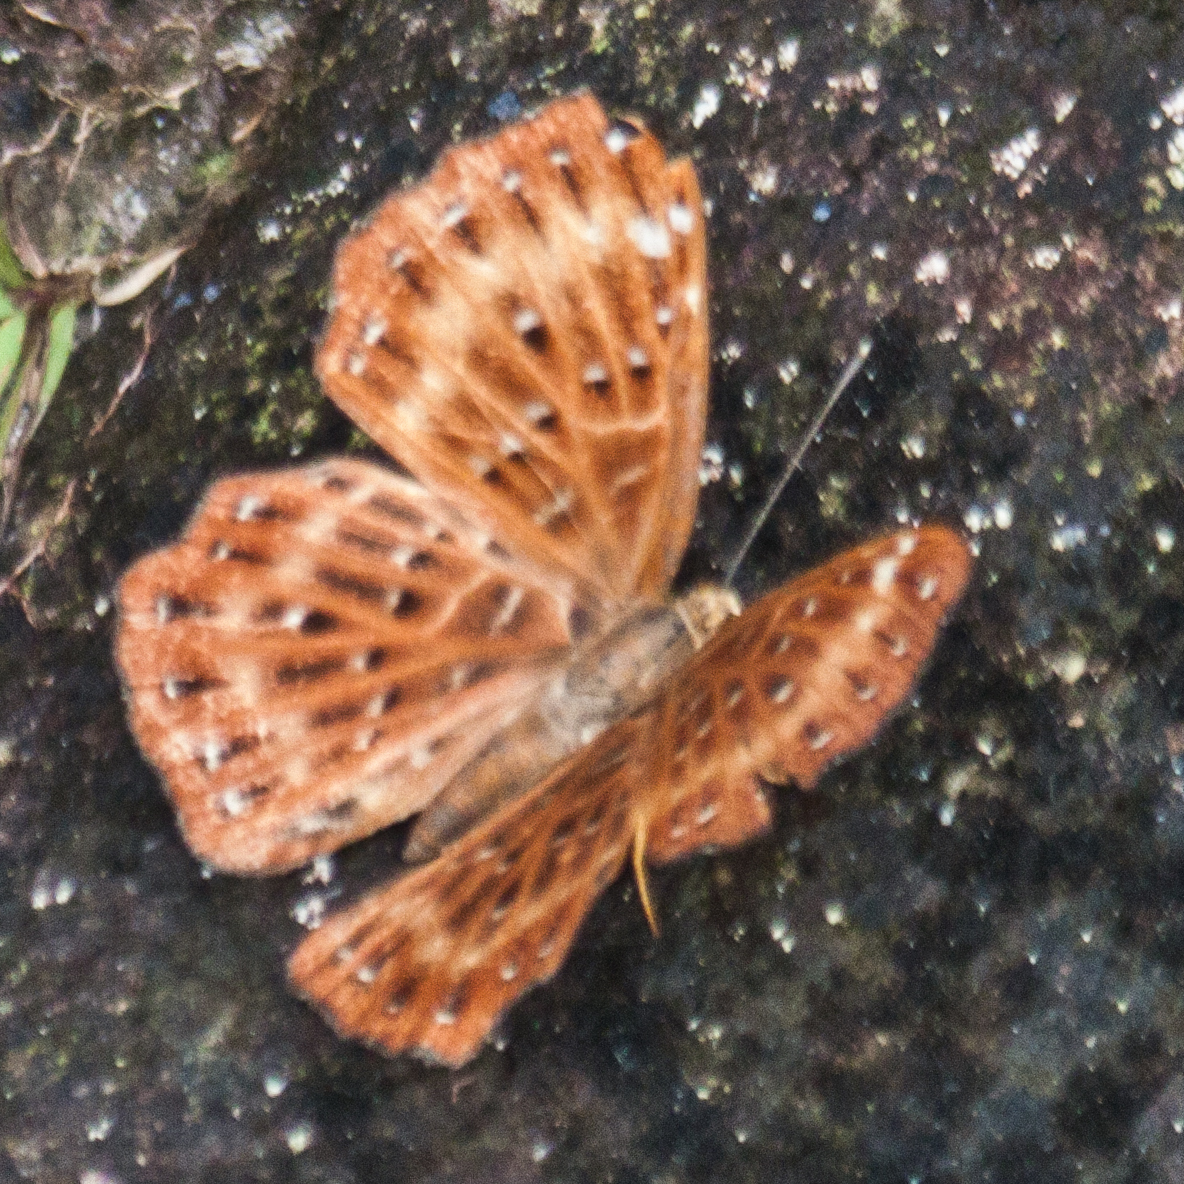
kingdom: Animalia
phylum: Arthropoda
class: Insecta
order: Lepidoptera
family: Riodinidae
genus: Zemeros
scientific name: Zemeros flegyas
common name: Punchinello
